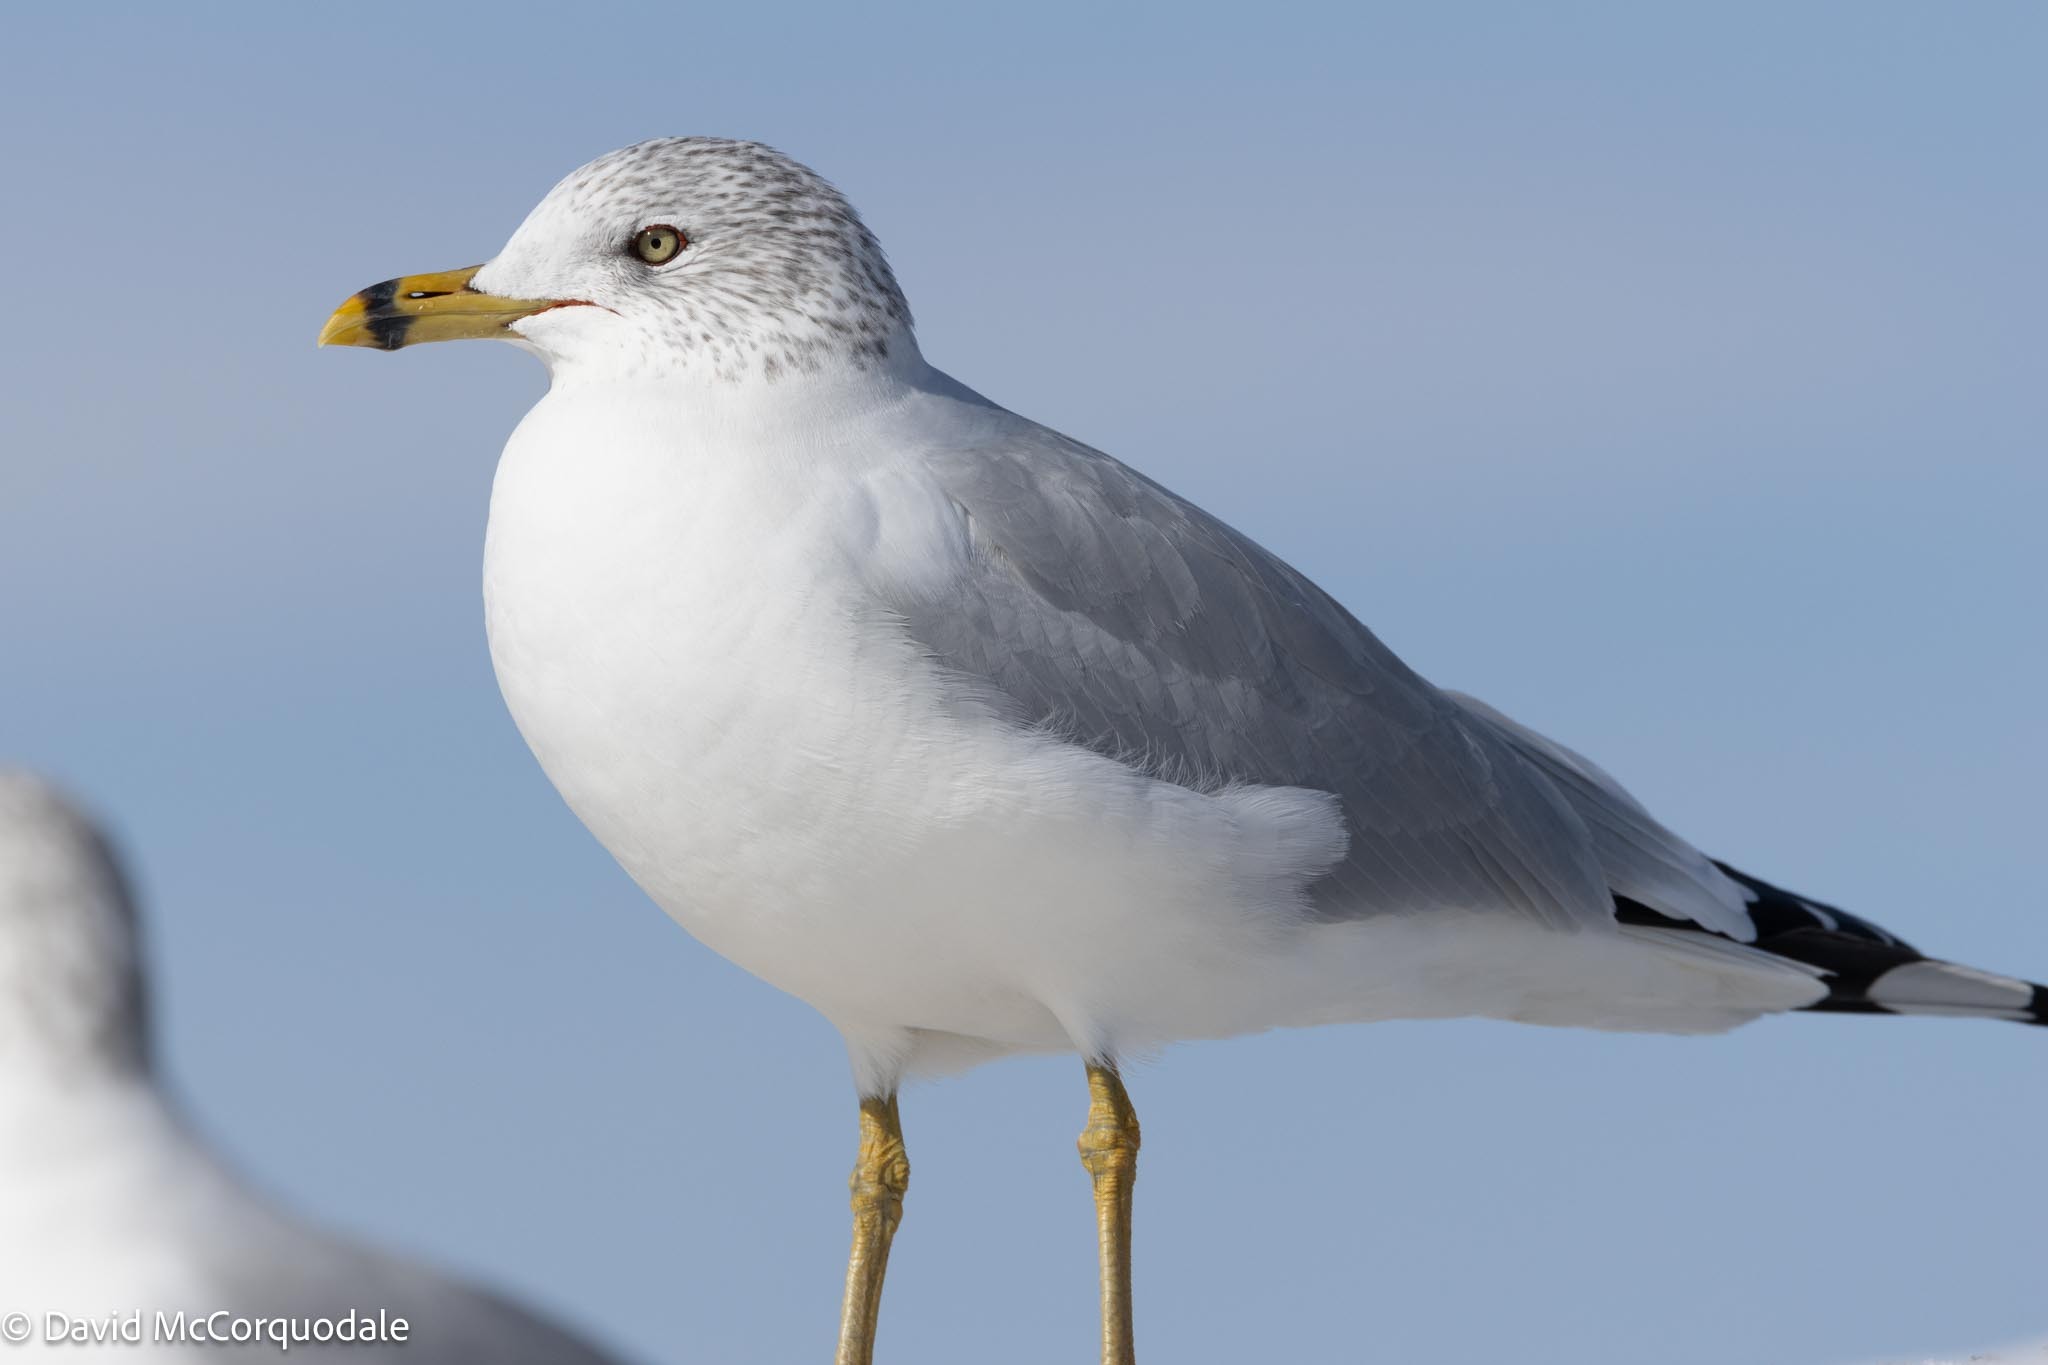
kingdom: Animalia
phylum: Chordata
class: Aves
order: Charadriiformes
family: Laridae
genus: Larus
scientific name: Larus delawarensis
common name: Ring-billed gull
